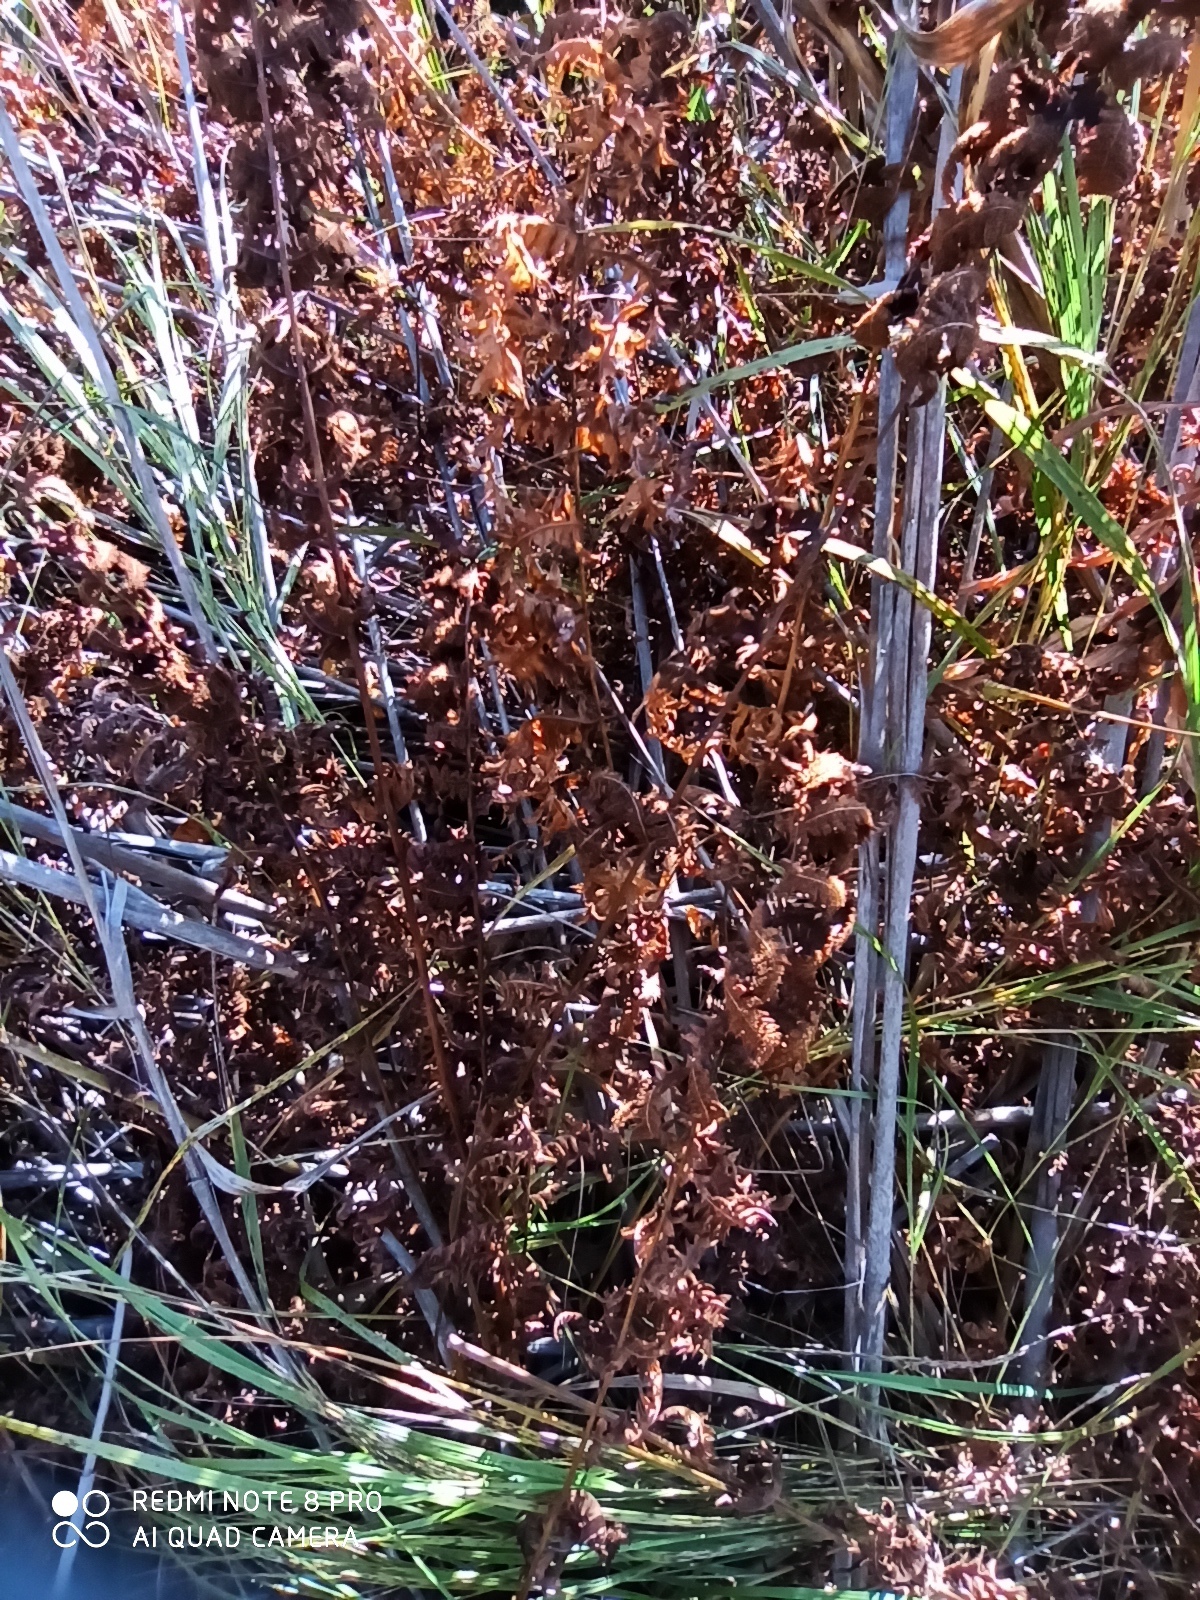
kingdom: Plantae
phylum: Tracheophyta
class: Polypodiopsida
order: Polypodiales
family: Thelypteridaceae
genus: Thelypteris
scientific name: Thelypteris palustris
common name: Marsh fern
